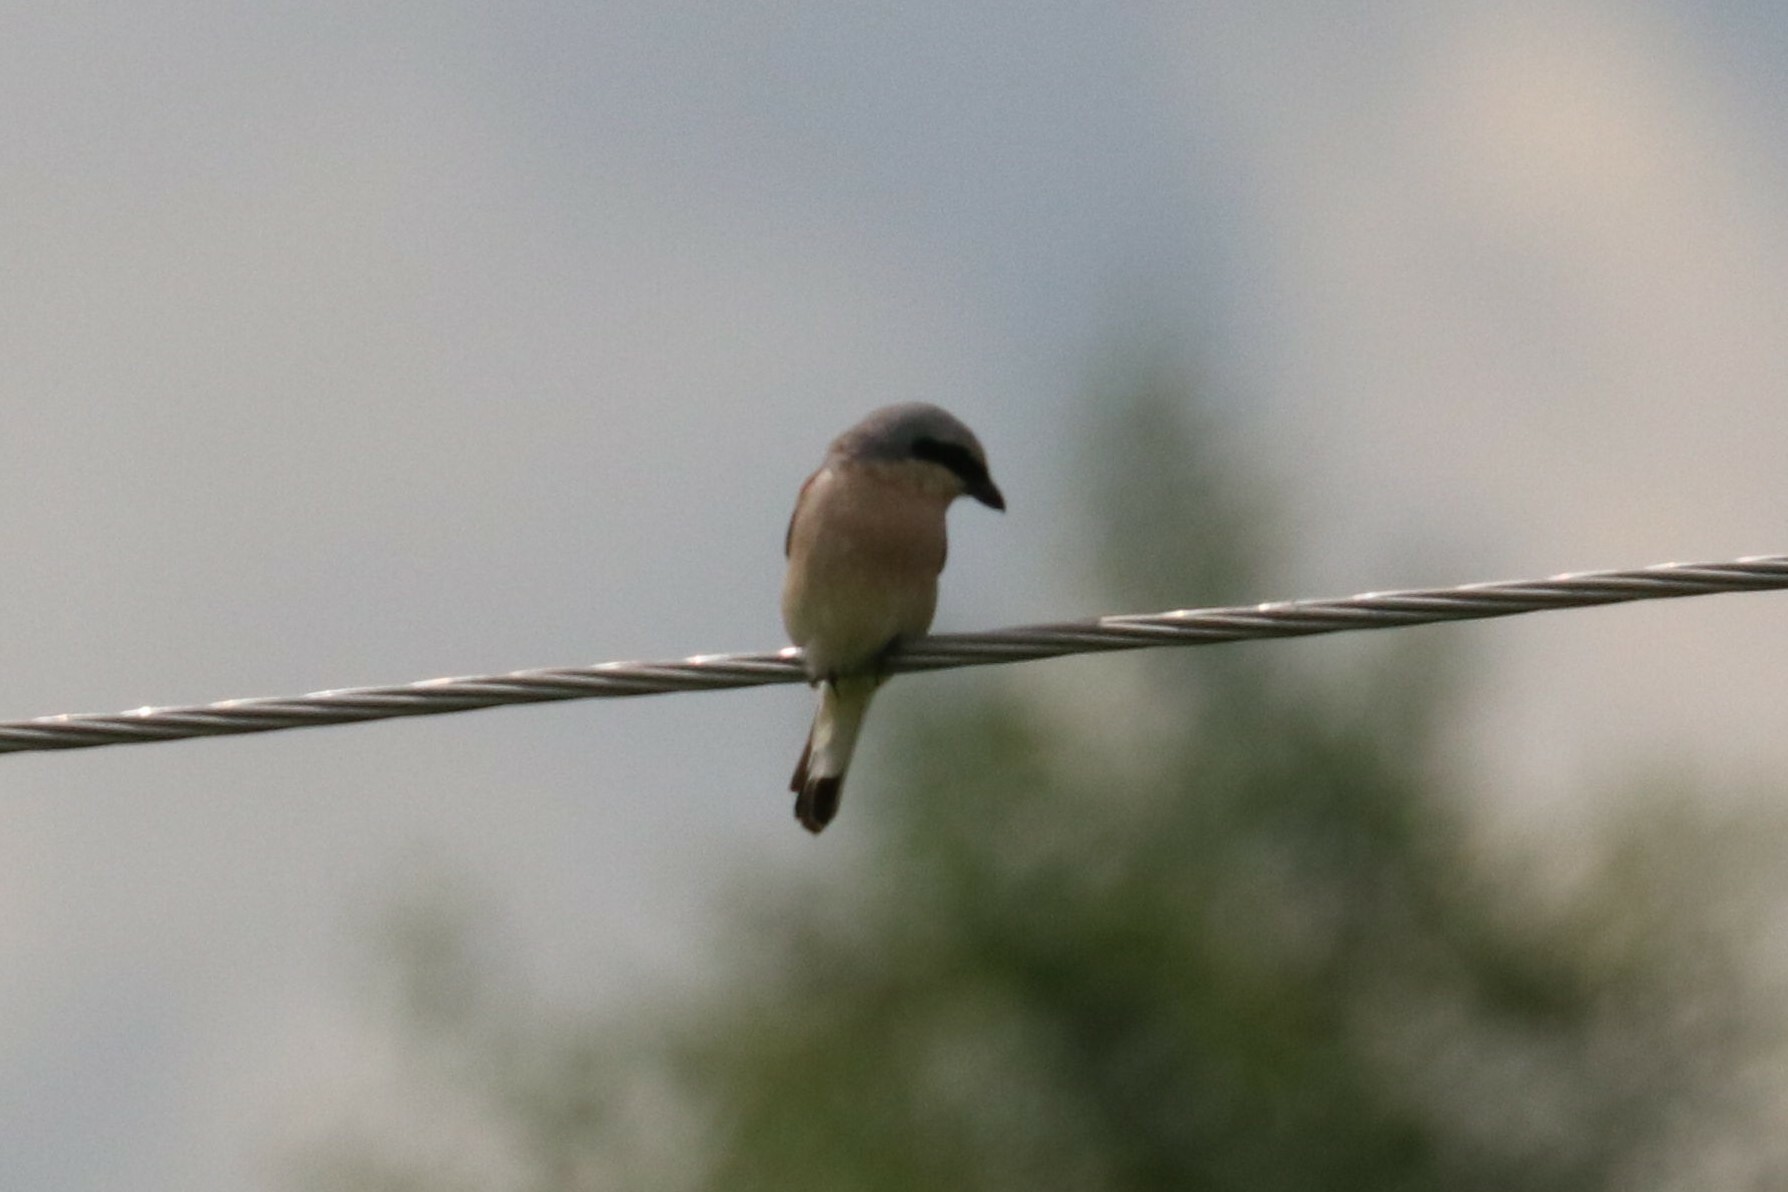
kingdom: Animalia
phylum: Chordata
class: Aves
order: Passeriformes
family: Laniidae
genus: Lanius
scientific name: Lanius collurio
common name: Red-backed shrike
